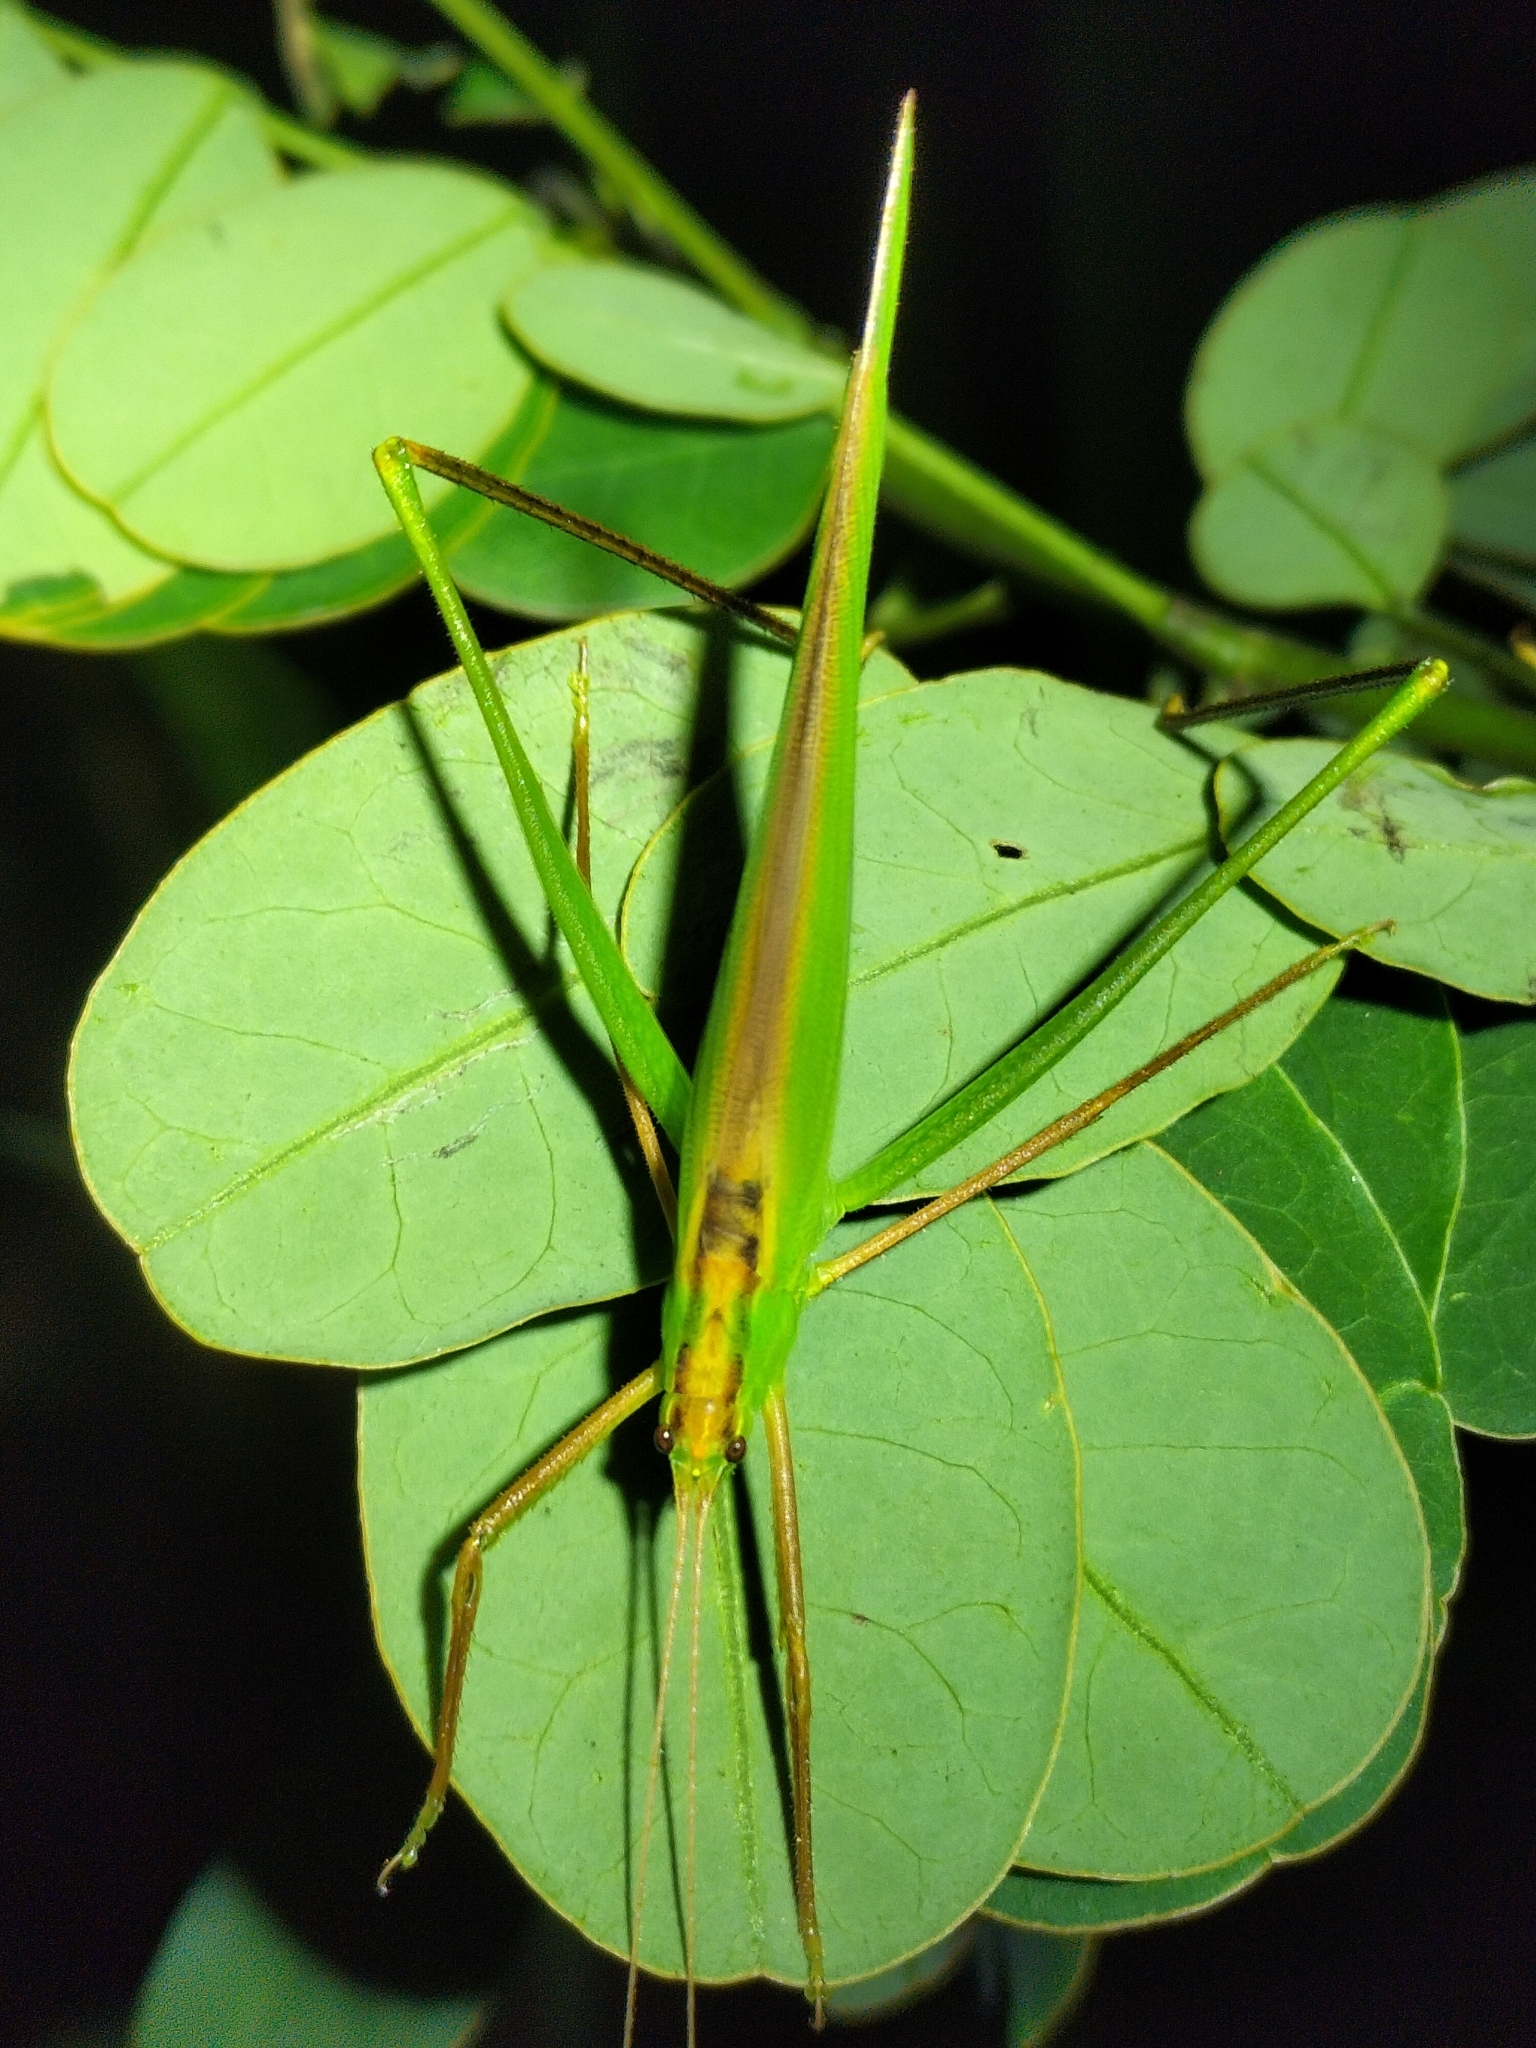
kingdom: Animalia
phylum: Arthropoda
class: Insecta
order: Orthoptera
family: Tettigoniidae
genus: Ducetia
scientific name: Ducetia antipoda
